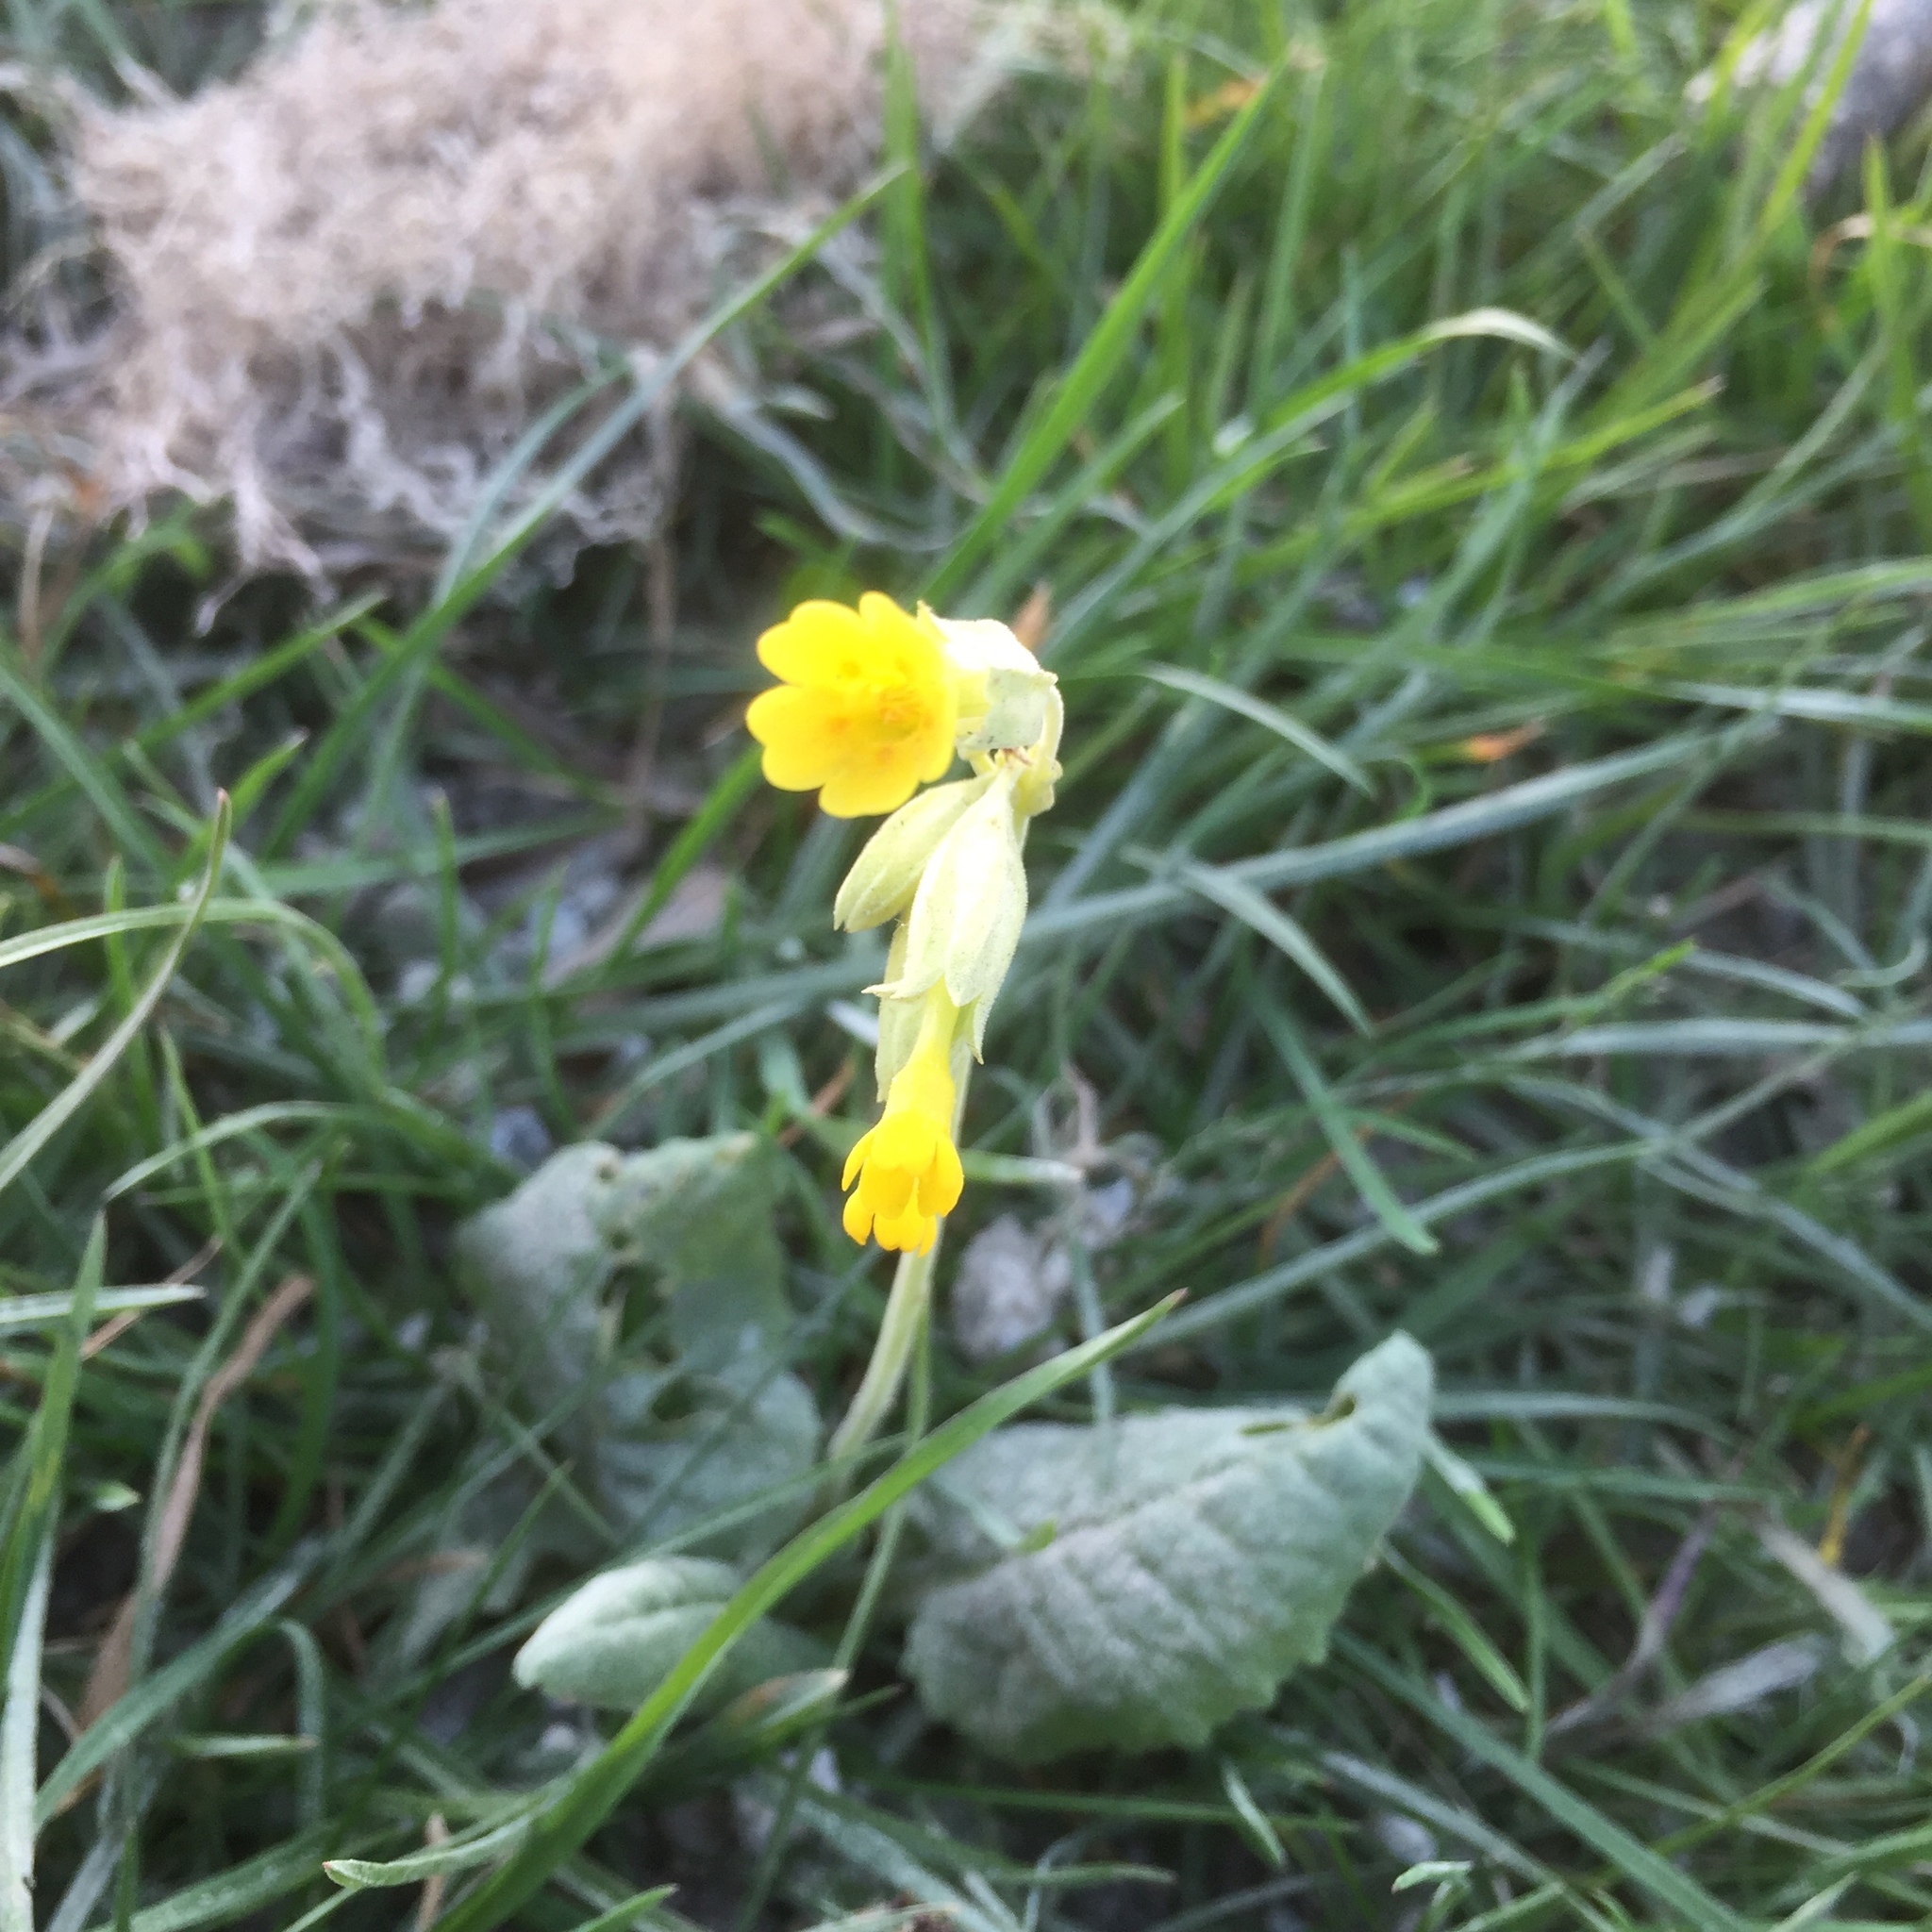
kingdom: Plantae
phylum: Tracheophyta
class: Magnoliopsida
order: Ericales
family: Primulaceae
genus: Primula
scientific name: Primula veris
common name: Cowslip
